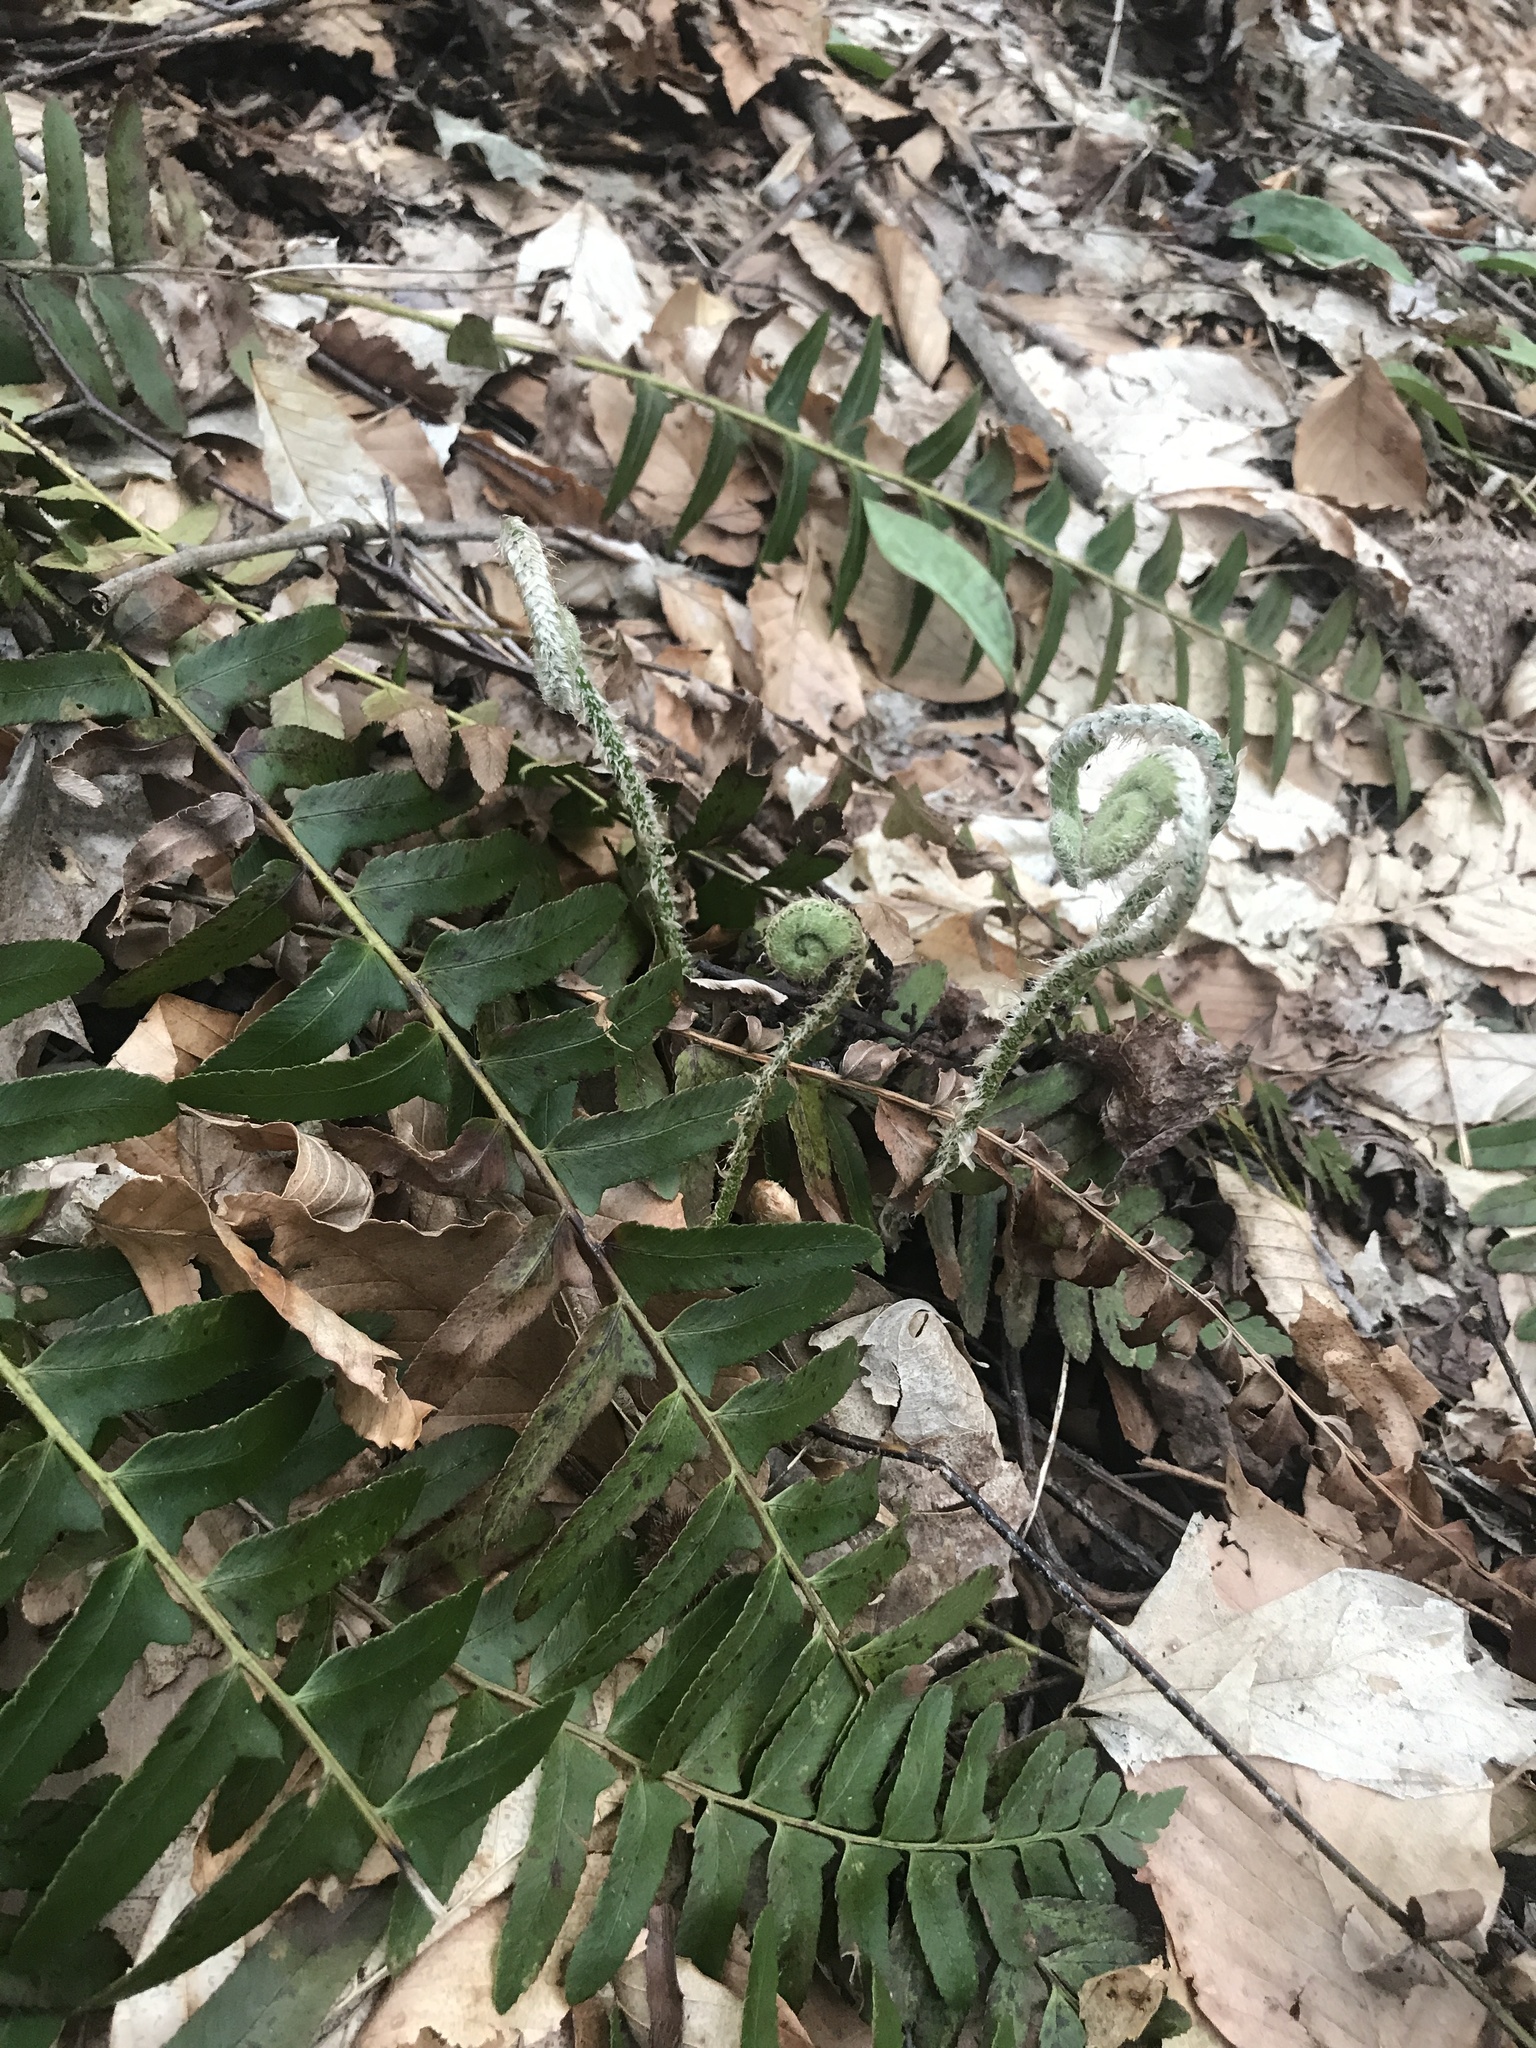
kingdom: Plantae
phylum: Tracheophyta
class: Polypodiopsida
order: Polypodiales
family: Dryopteridaceae
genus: Polystichum
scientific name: Polystichum acrostichoides
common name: Christmas fern
